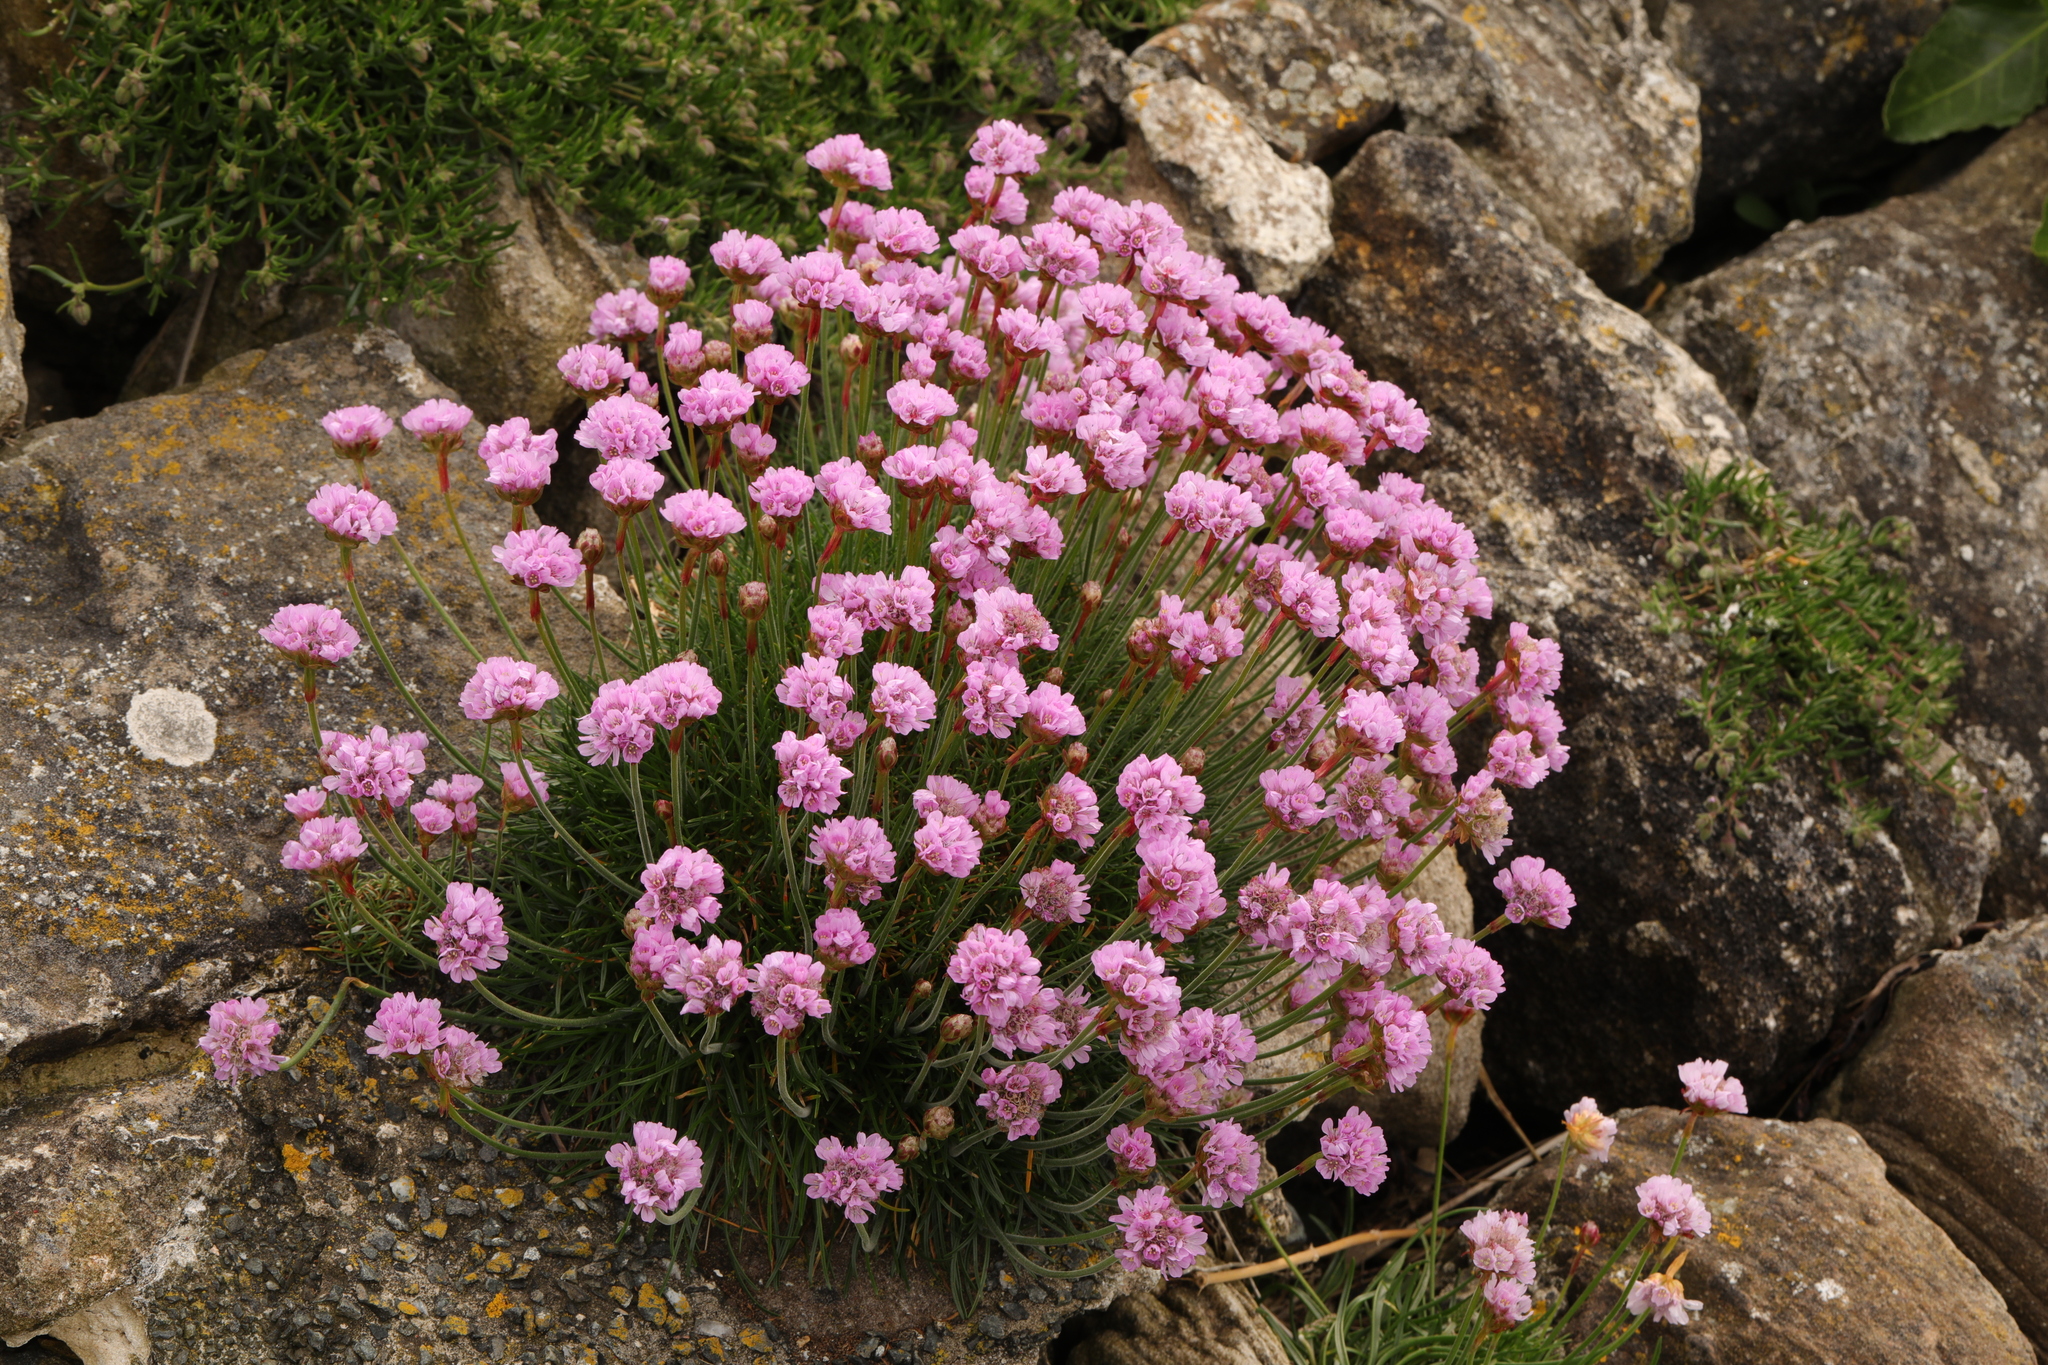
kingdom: Plantae
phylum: Tracheophyta
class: Magnoliopsida
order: Caryophyllales
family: Plumbaginaceae
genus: Armeria
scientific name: Armeria maritima
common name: Thrift
